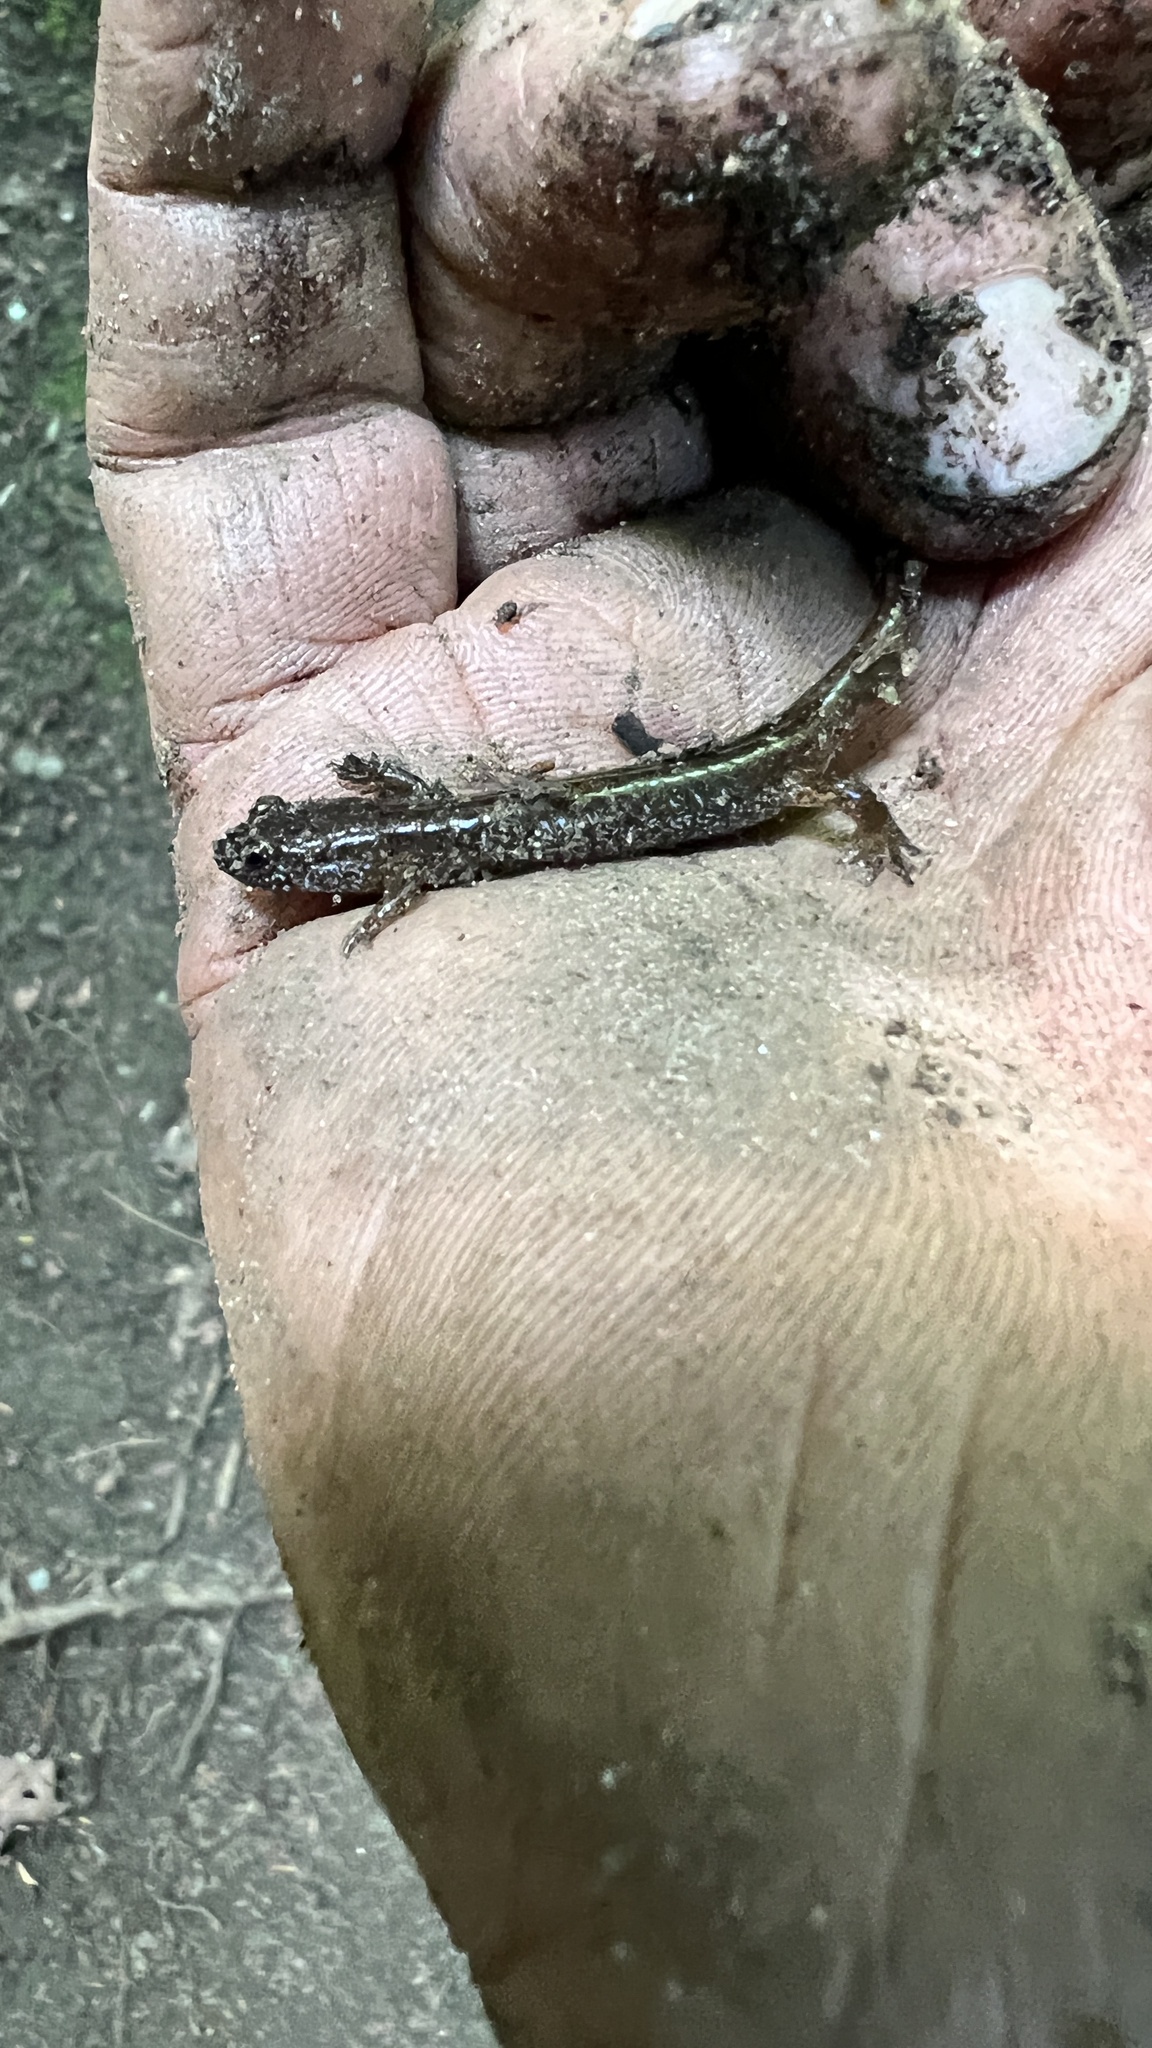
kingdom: Animalia
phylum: Chordata
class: Amphibia
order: Caudata
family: Plethodontidae
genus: Desmognathus
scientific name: Desmognathus fuscus
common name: Northern dusky salamander
